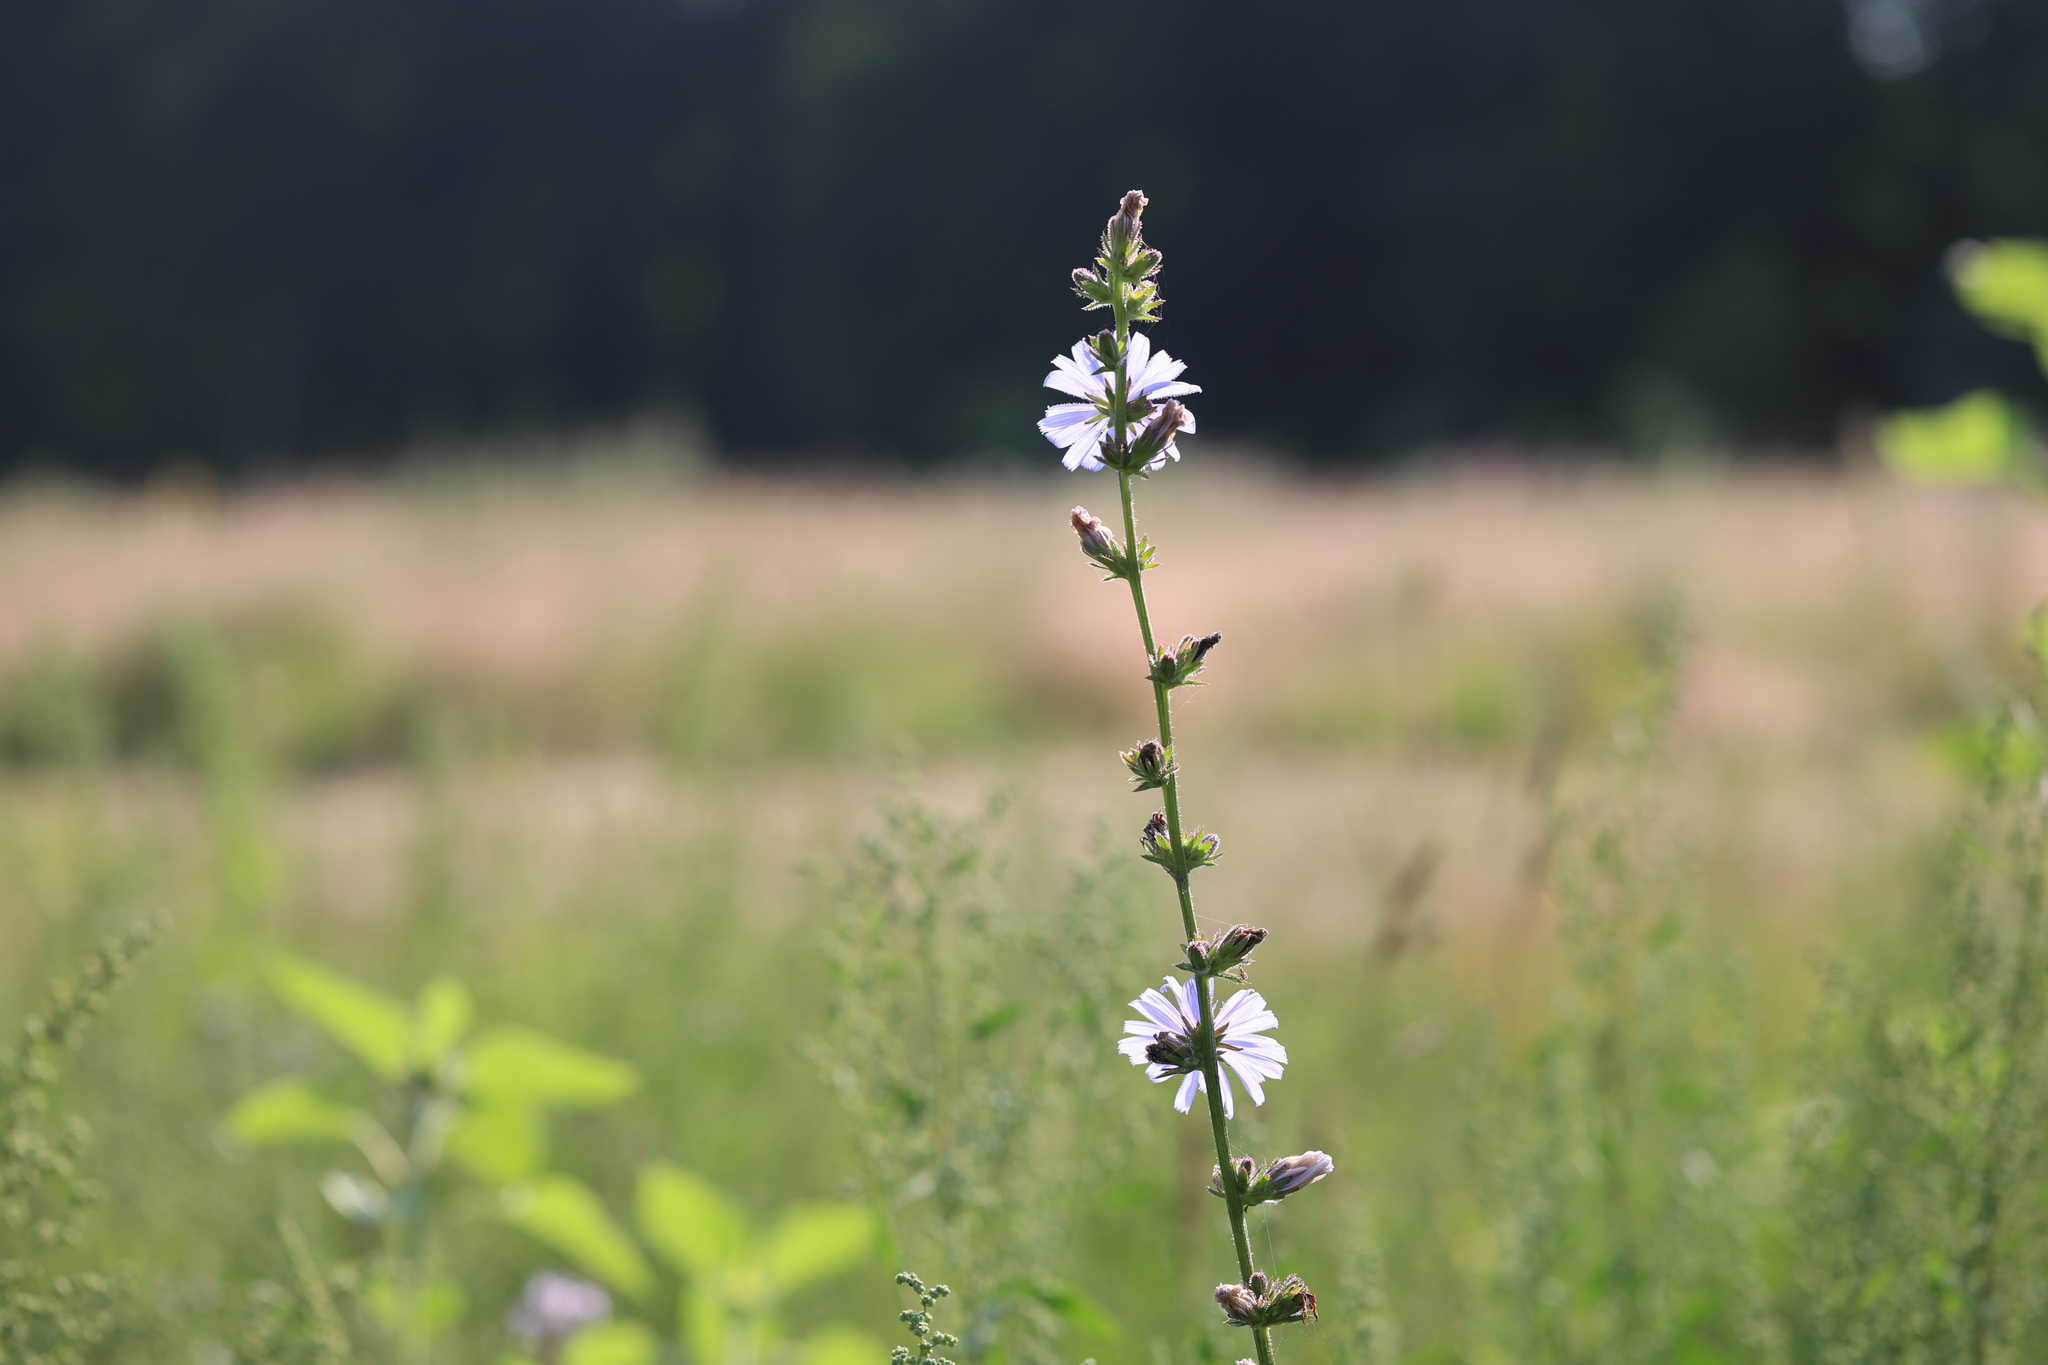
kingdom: Plantae
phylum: Tracheophyta
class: Magnoliopsida
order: Asterales
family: Asteraceae
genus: Cichorium
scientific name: Cichorium intybus
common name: Chicory
